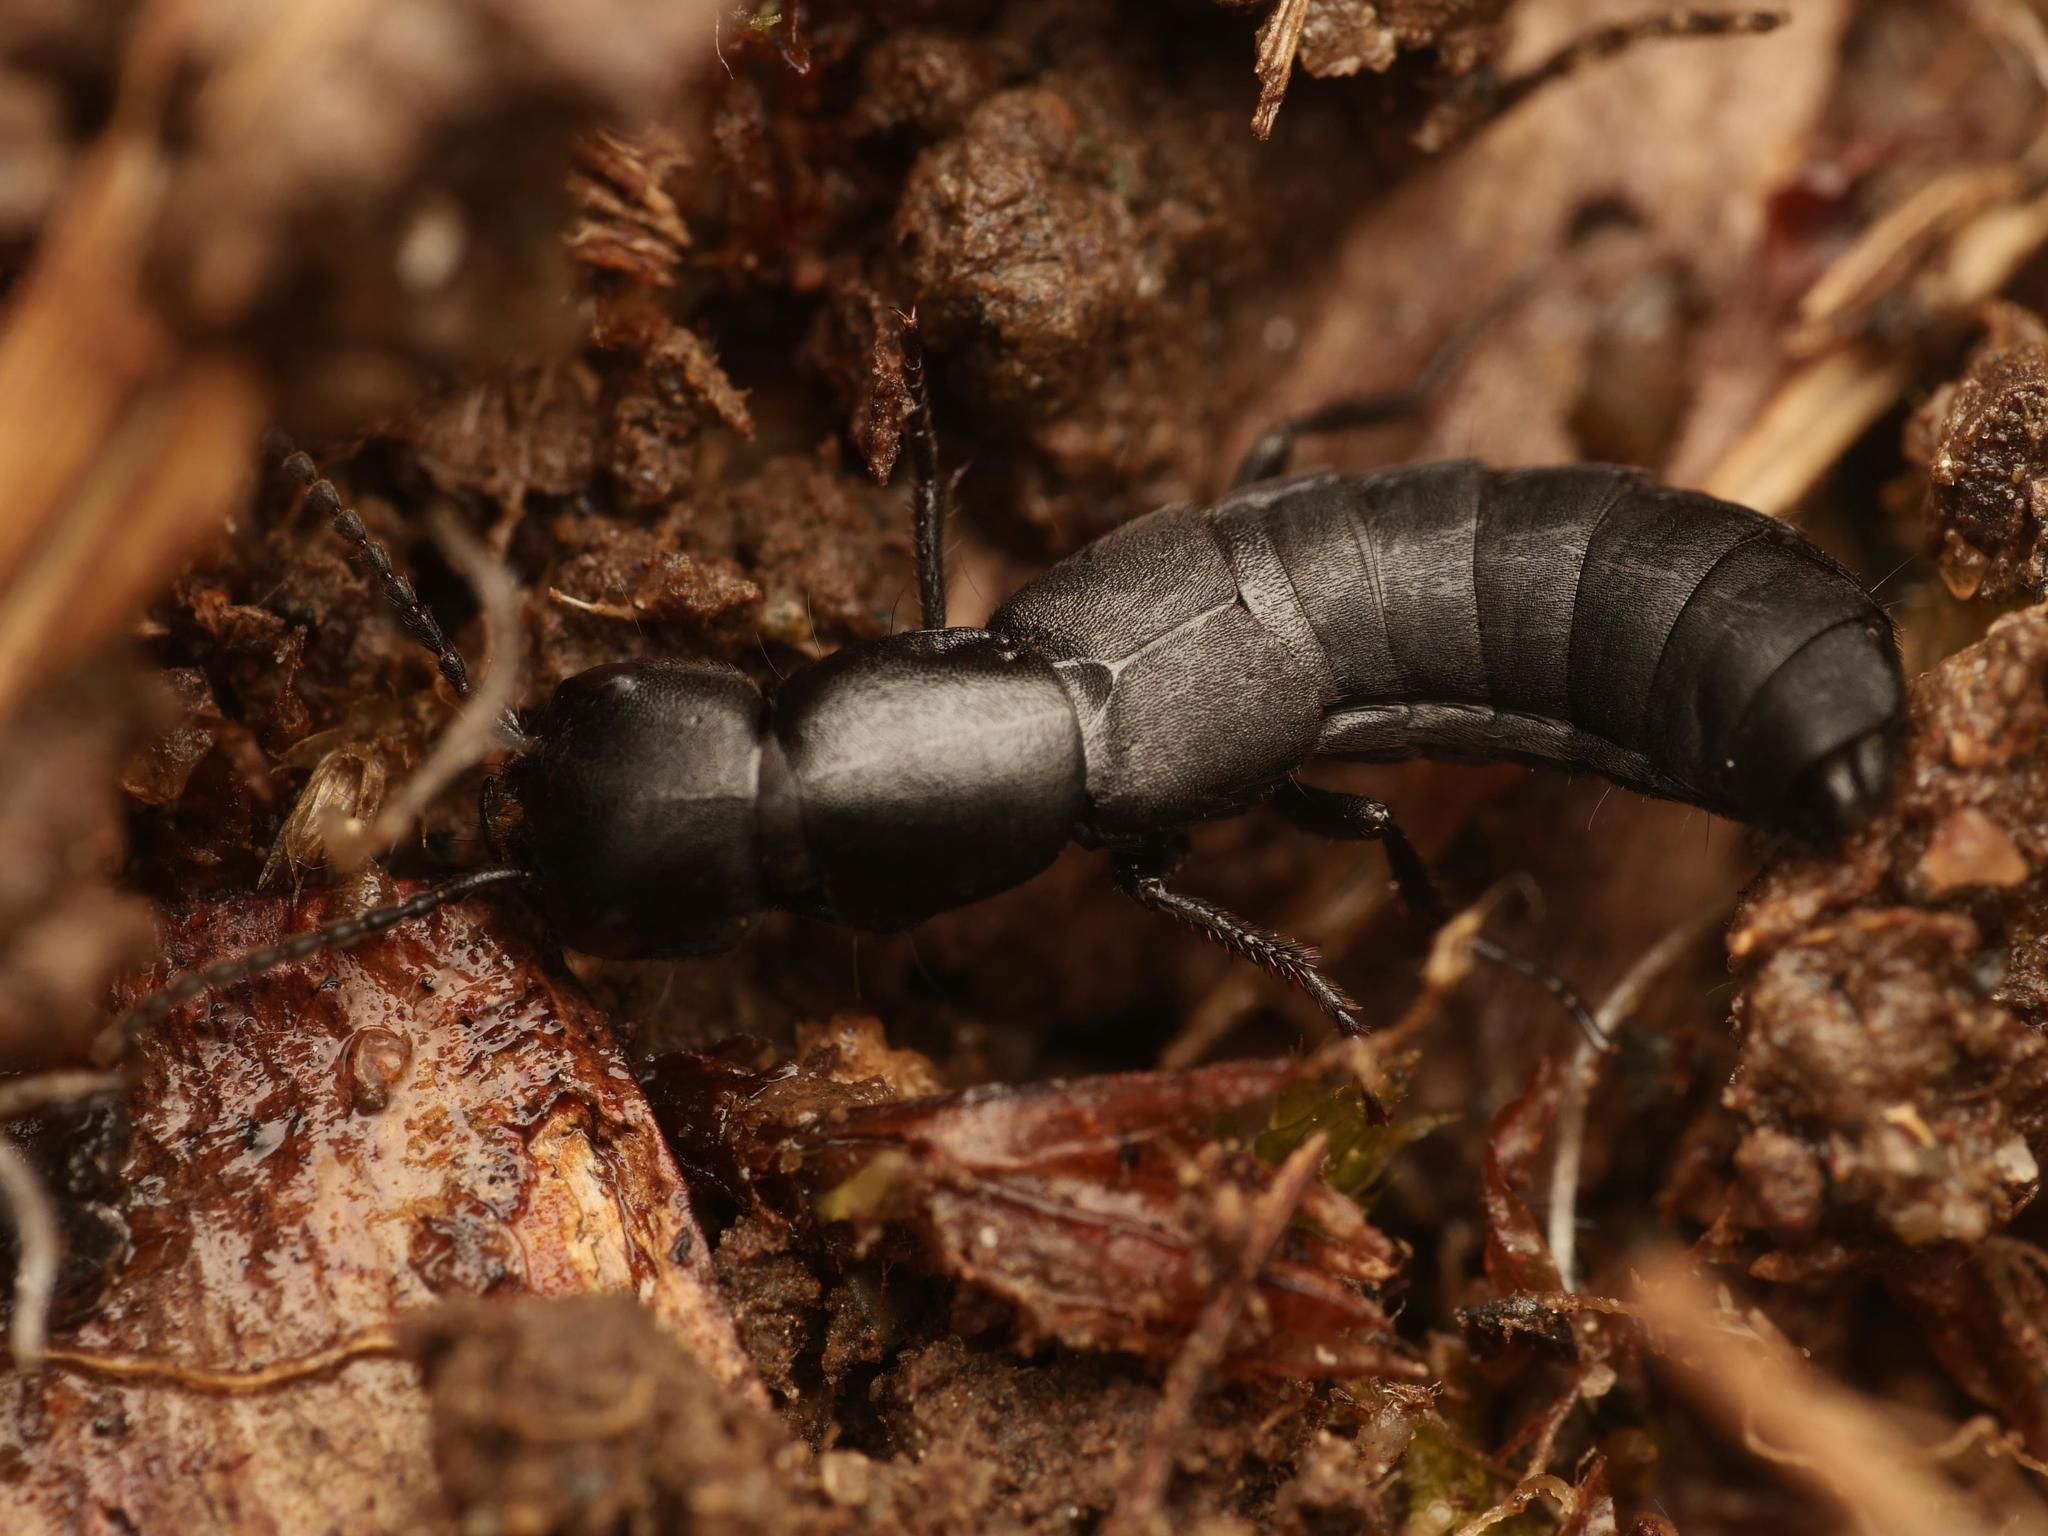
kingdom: Animalia
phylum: Arthropoda
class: Insecta
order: Coleoptera
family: Staphylinidae
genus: Ocypus
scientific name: Ocypus nitens
